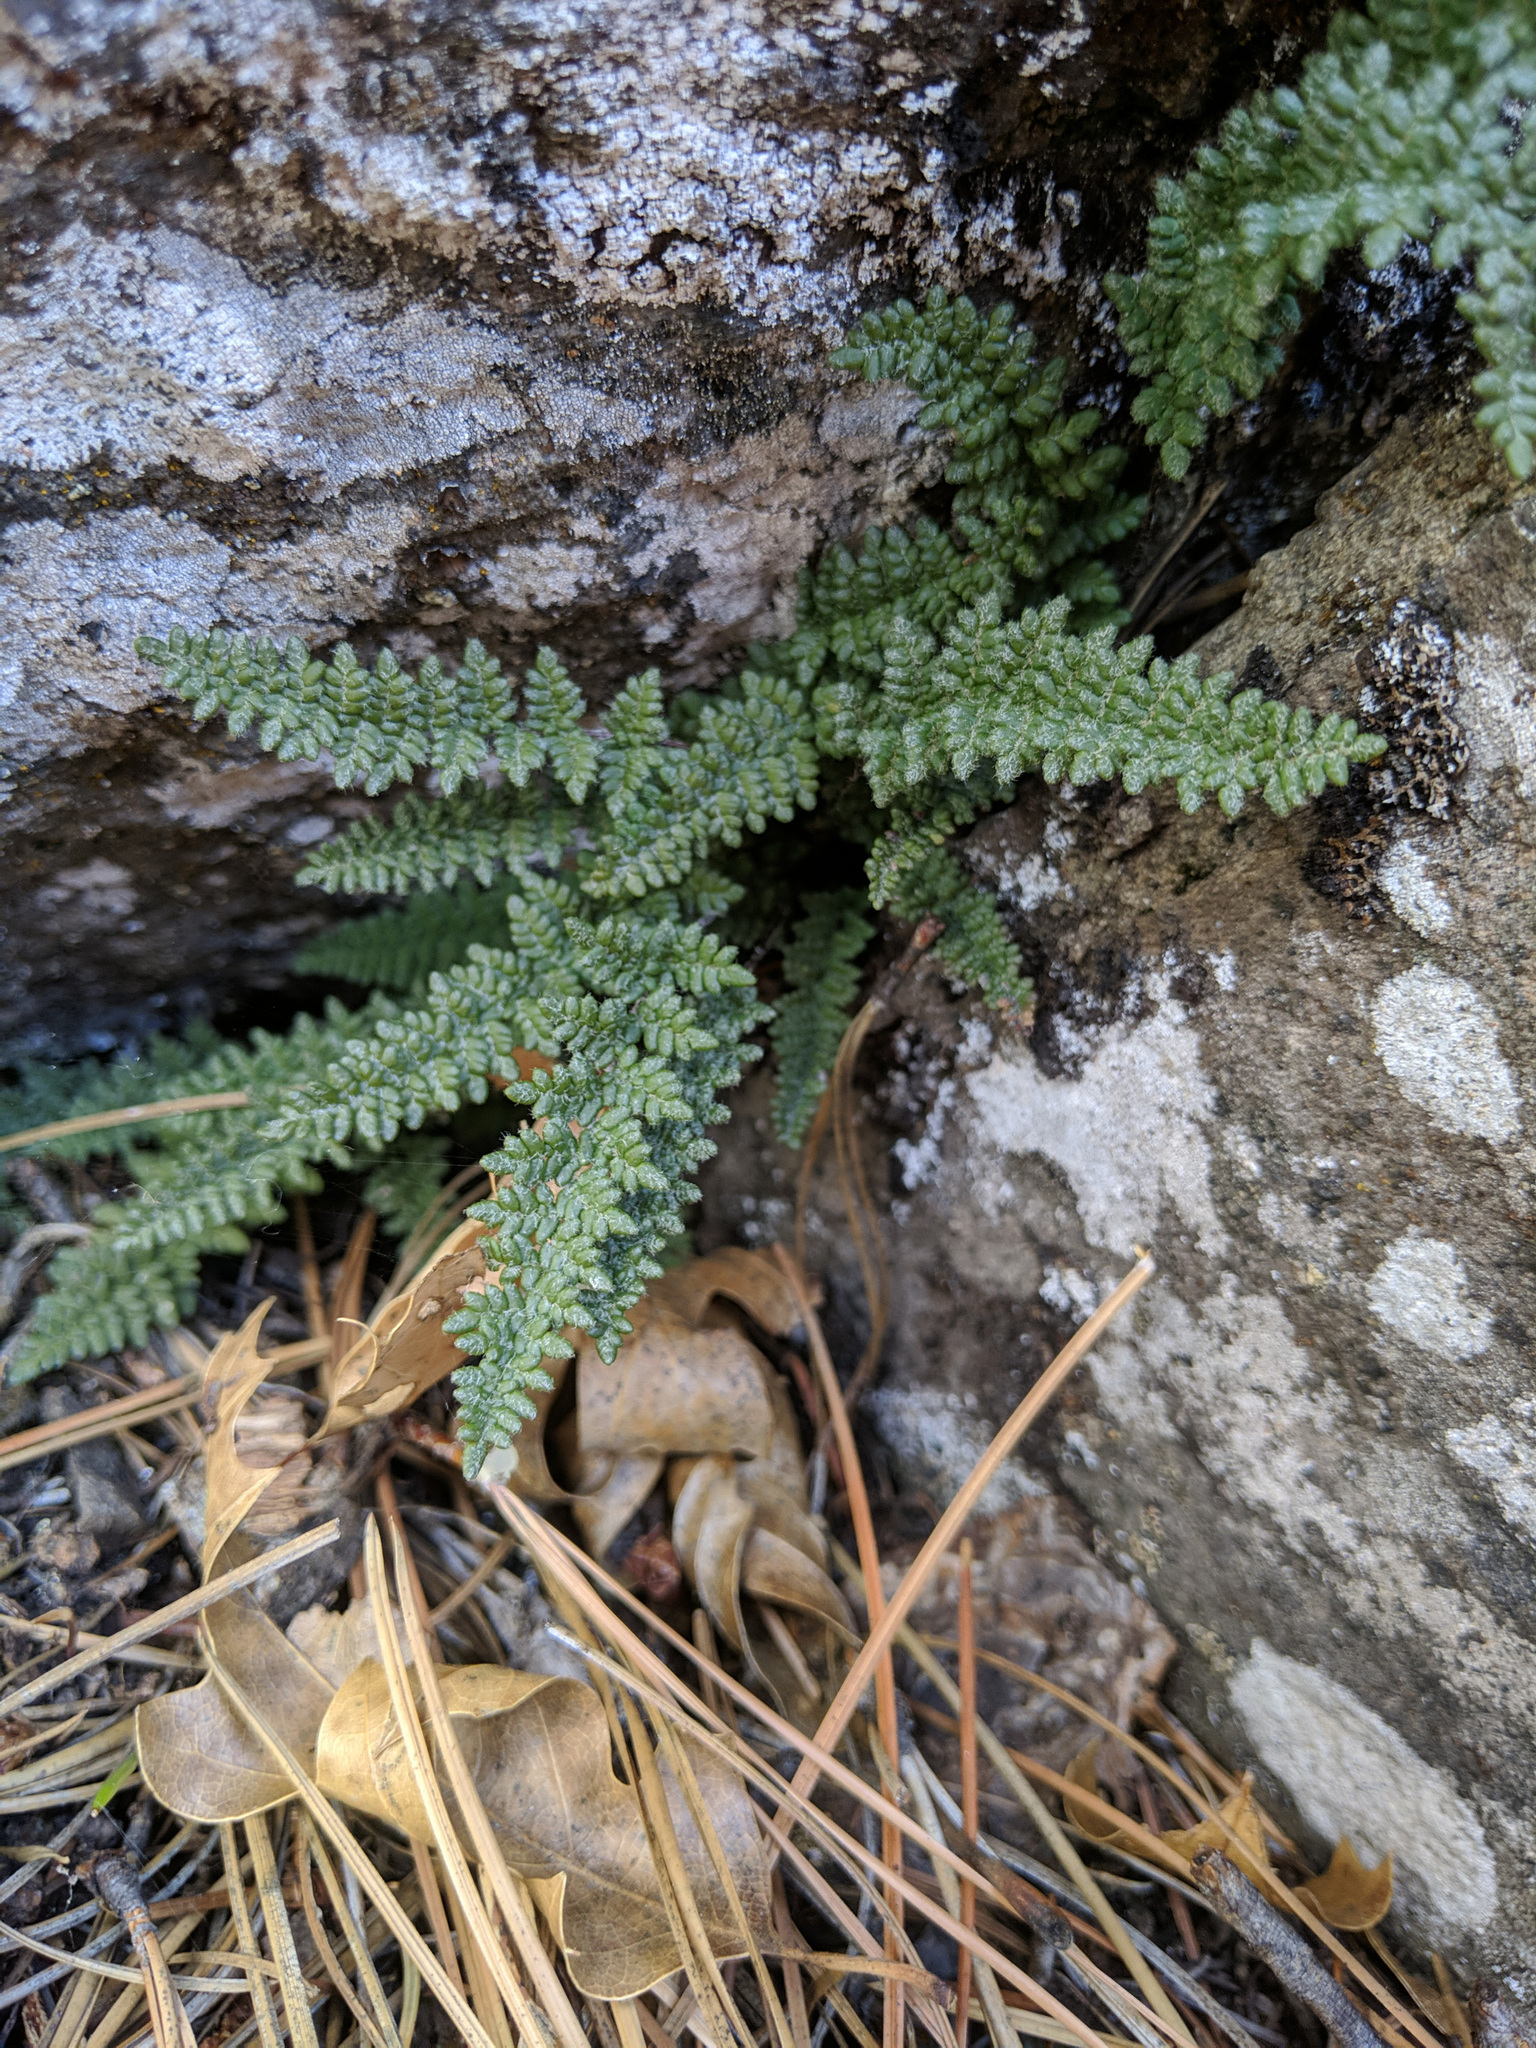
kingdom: Plantae
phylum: Tracheophyta
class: Polypodiopsida
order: Polypodiales
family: Pteridaceae
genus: Myriopteris
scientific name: Myriopteris gracillima
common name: Lace fern
